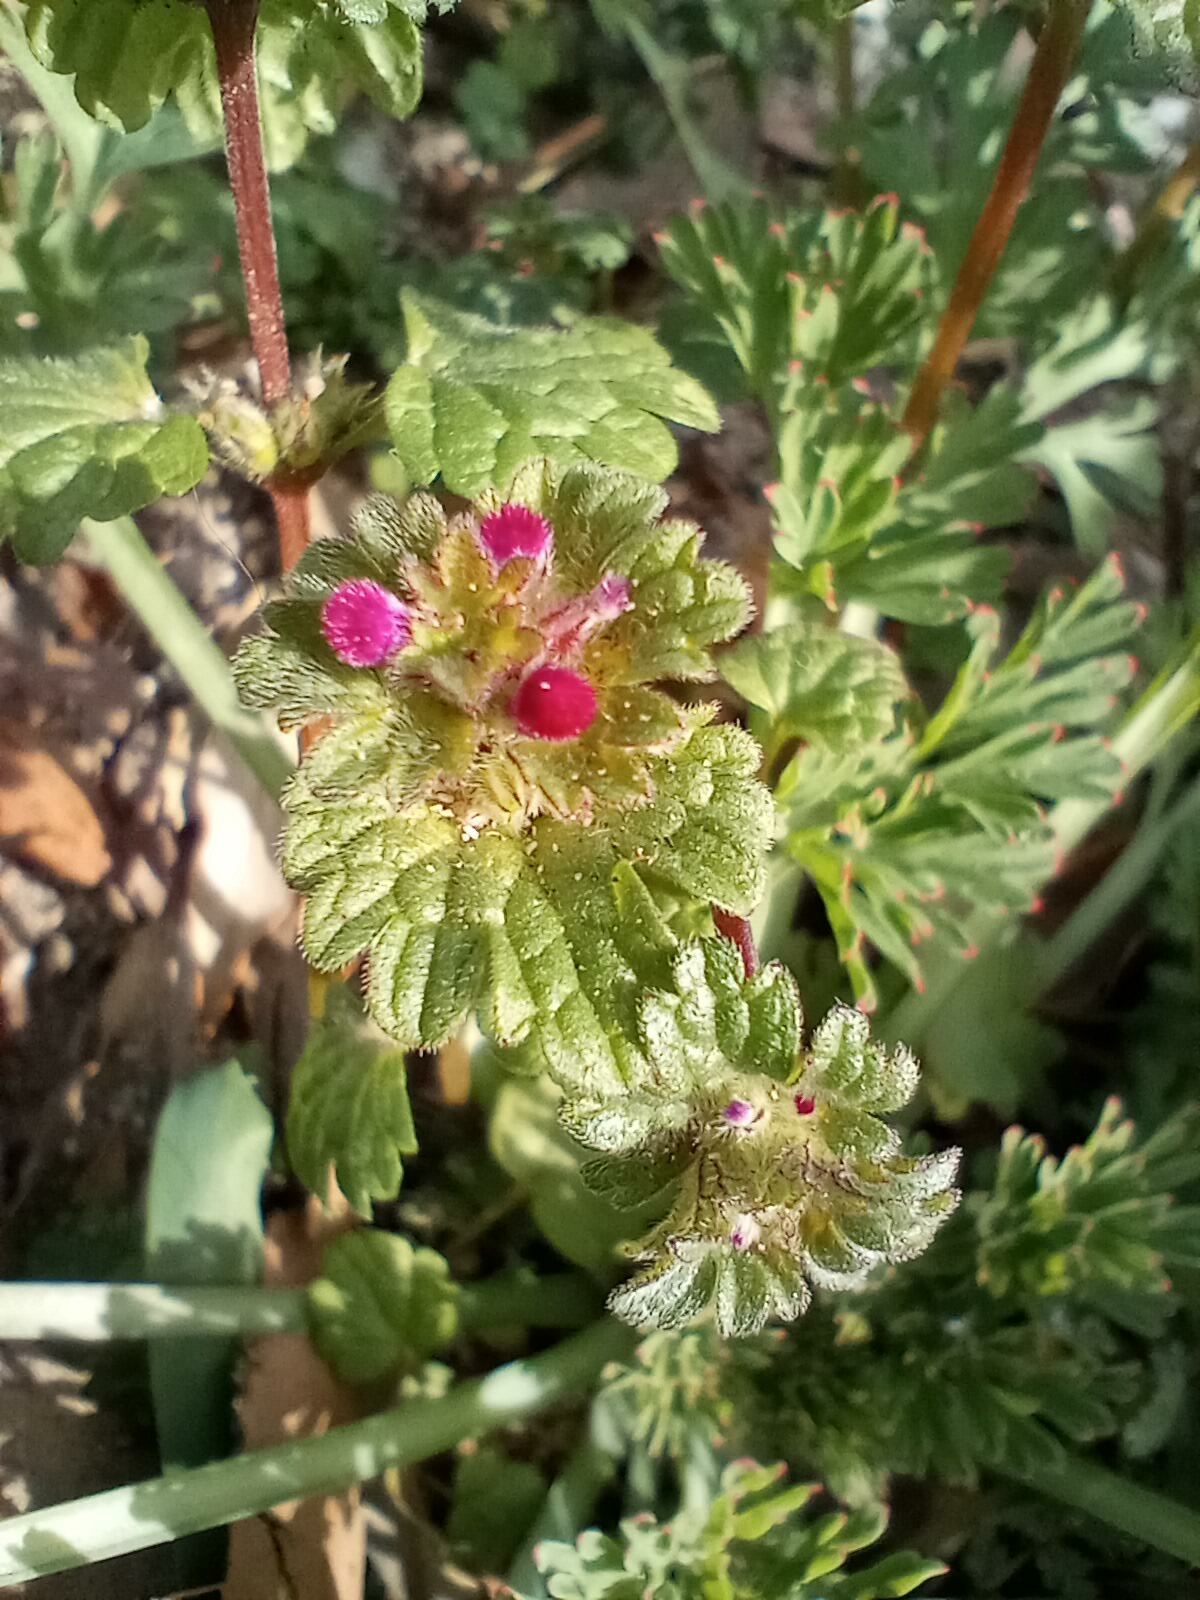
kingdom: Plantae
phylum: Tracheophyta
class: Magnoliopsida
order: Lamiales
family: Lamiaceae
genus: Lamium
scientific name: Lamium amplexicaule
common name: Henbit dead-nettle
